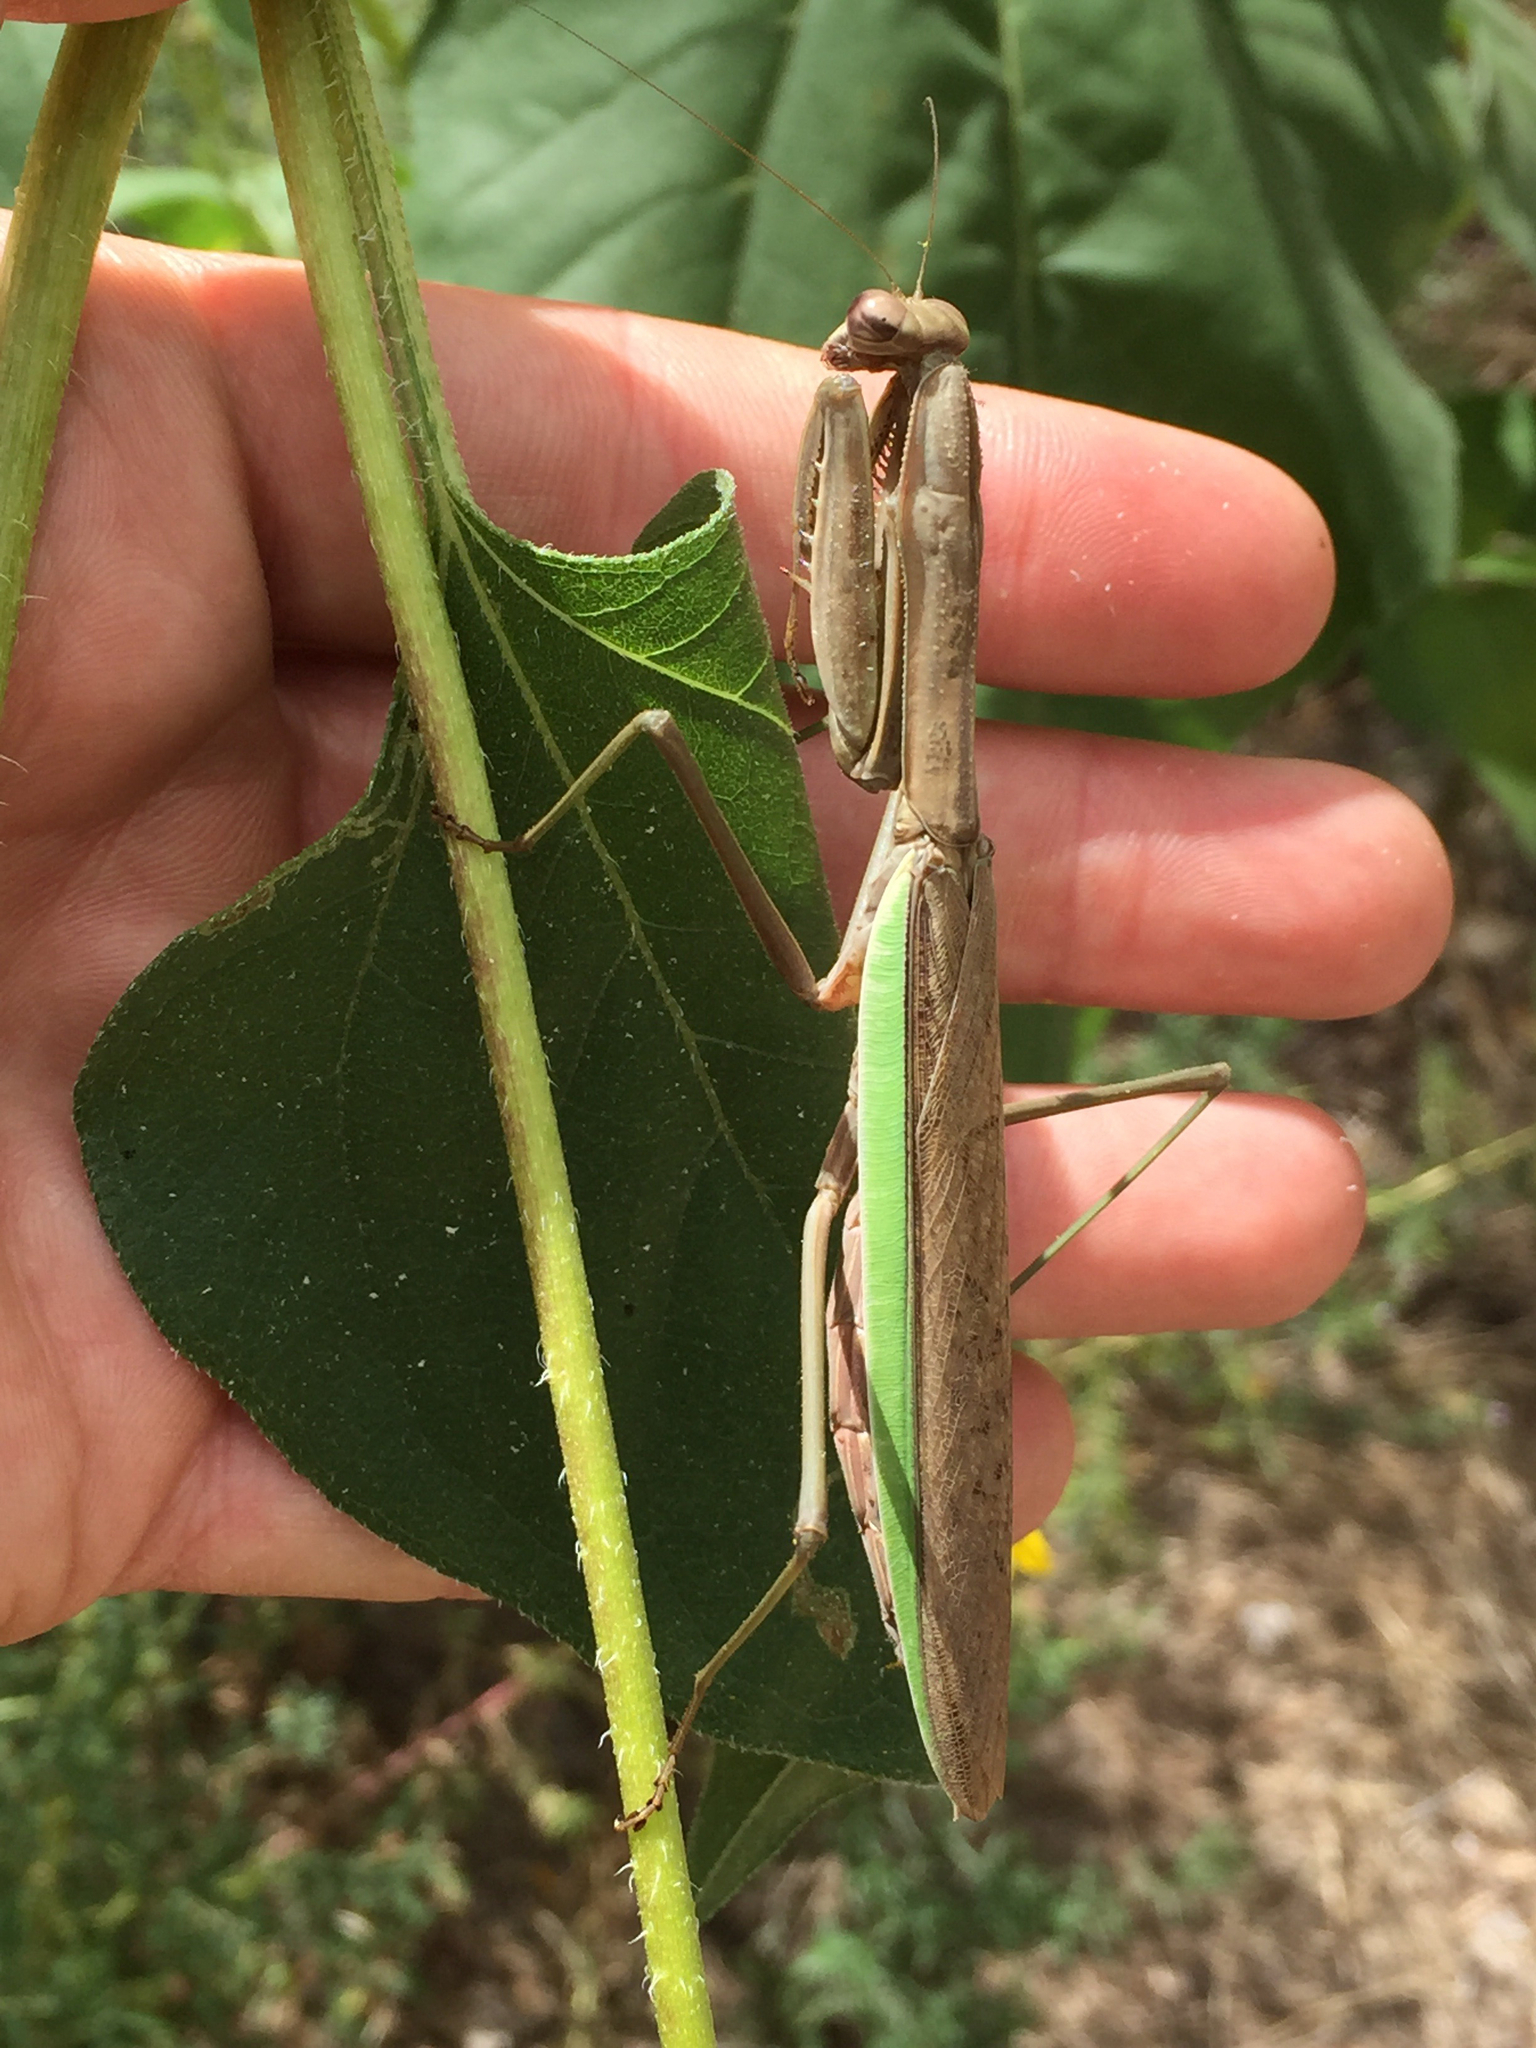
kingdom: Animalia
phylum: Arthropoda
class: Insecta
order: Mantodea
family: Mantidae
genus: Tenodera
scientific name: Tenodera sinensis
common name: Chinese mantis
